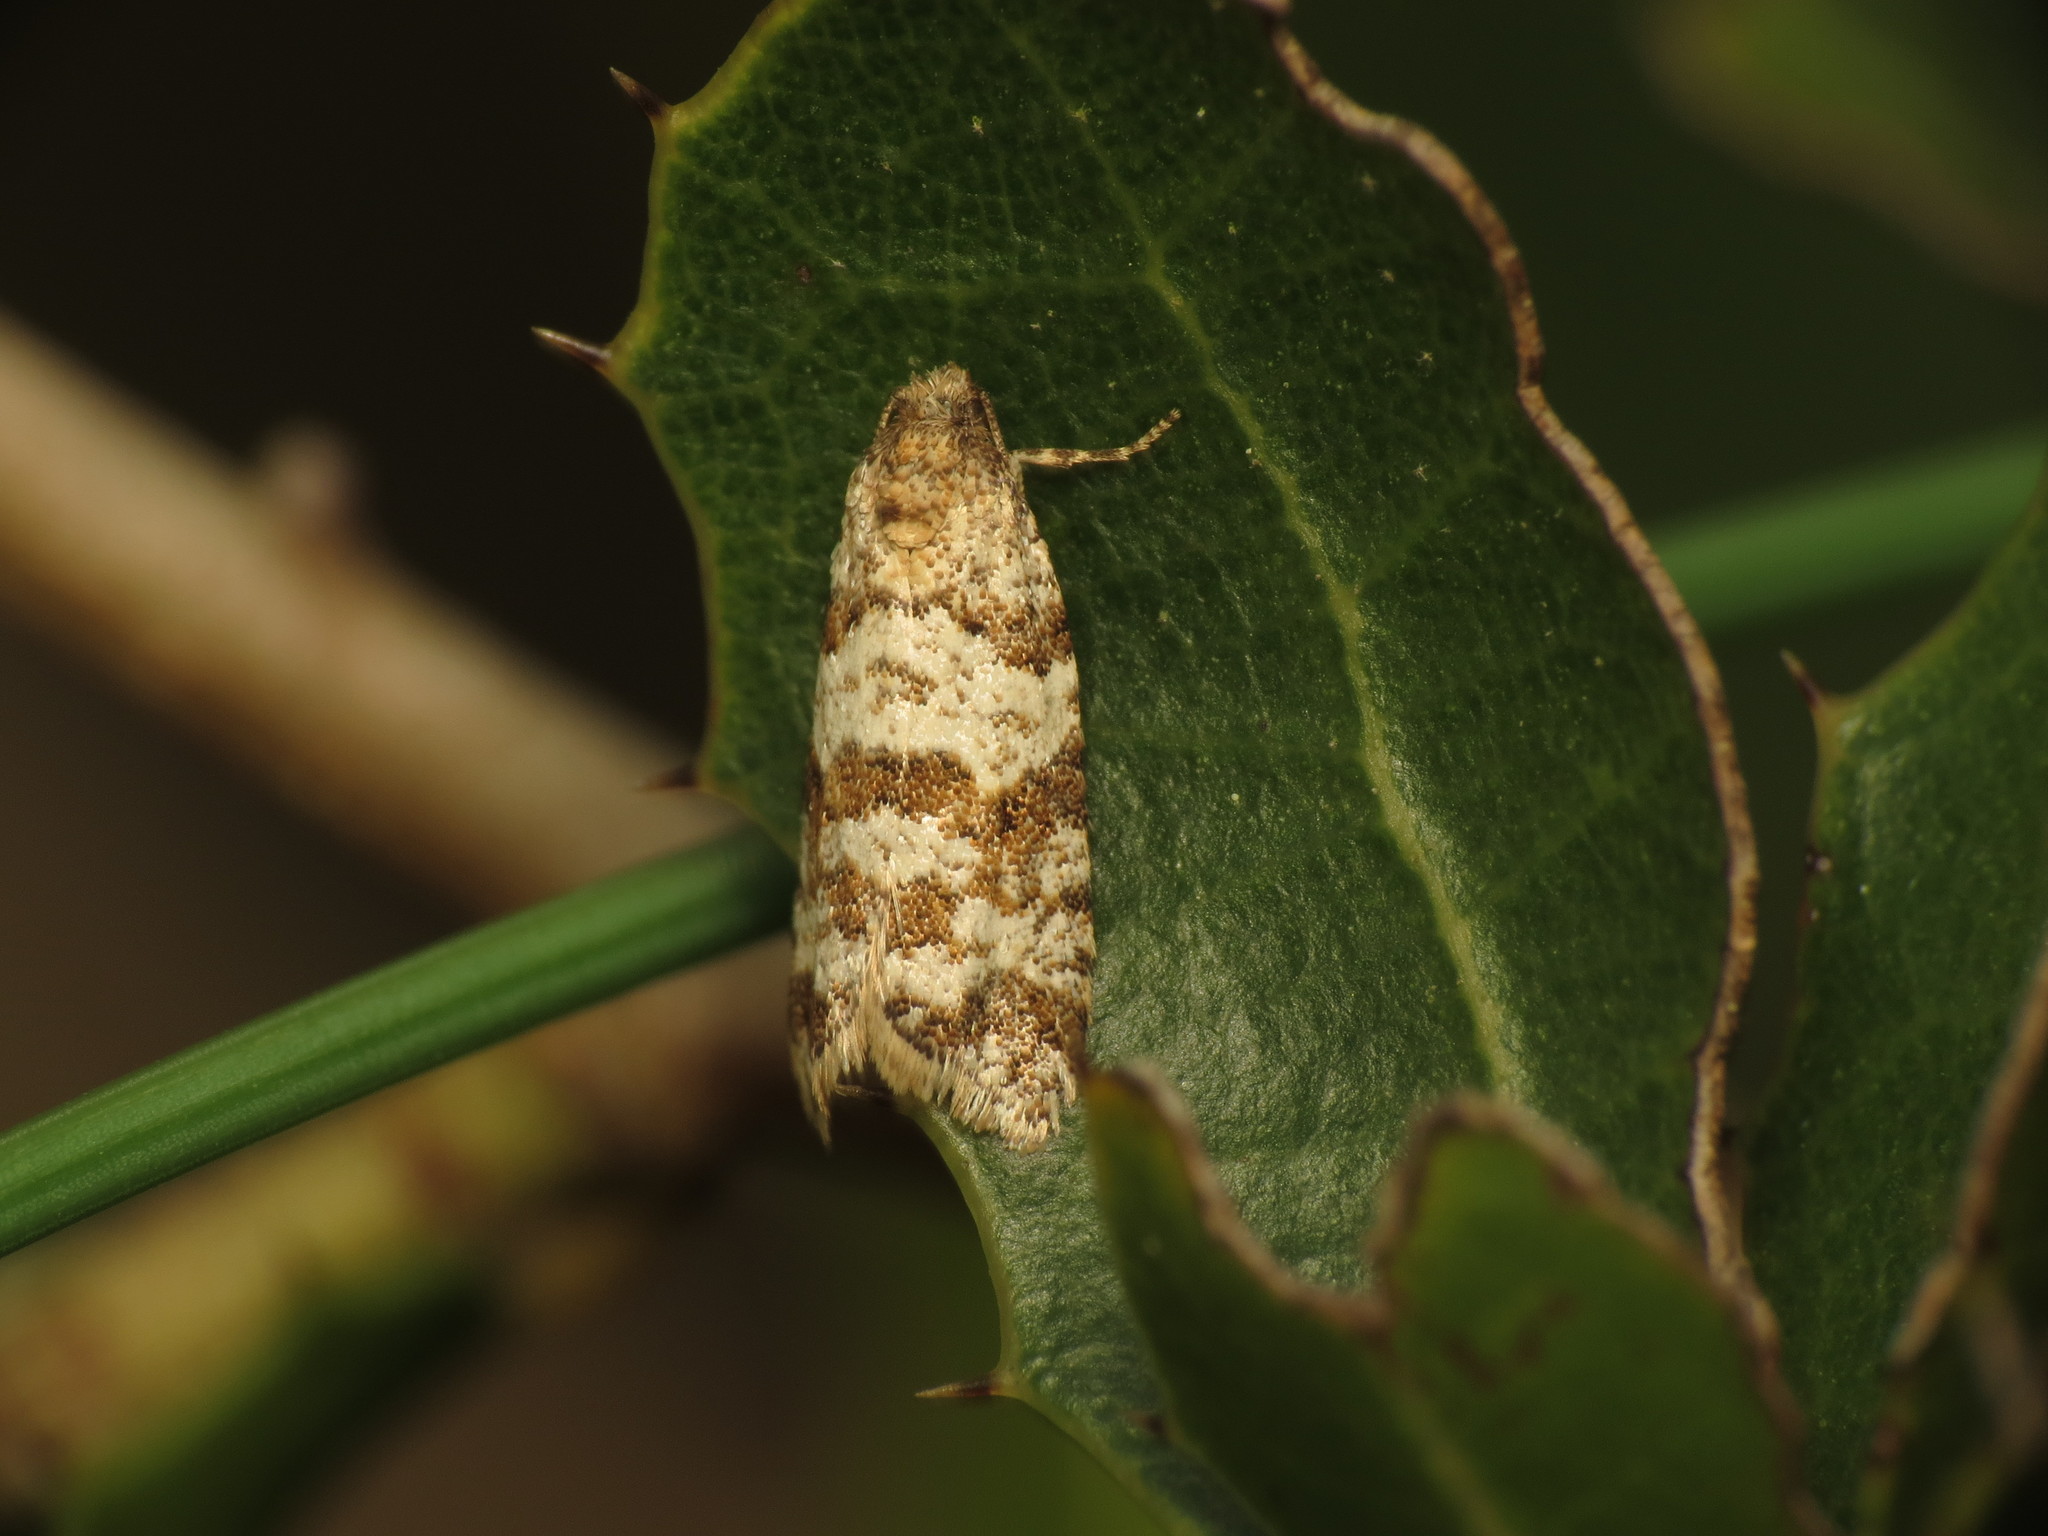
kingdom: Animalia
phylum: Arthropoda
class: Insecta
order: Lepidoptera
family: Tortricidae
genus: Isotrias
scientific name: Isotrias stramentana
